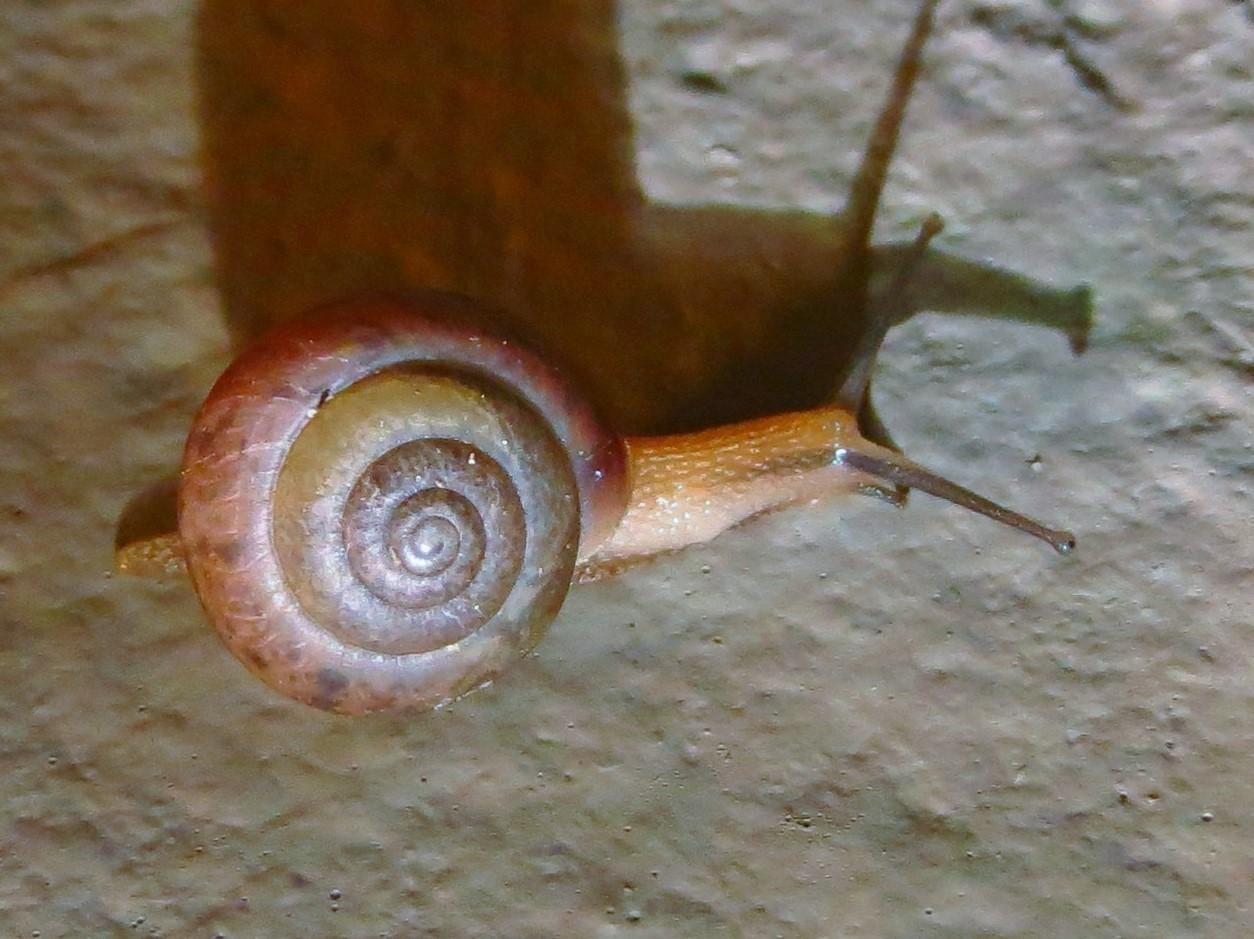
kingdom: Animalia
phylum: Mollusca
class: Gastropoda
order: Stylommatophora
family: Camaenidae
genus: Bradybaena
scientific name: Bradybaena similaris
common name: Asian trampsnail
